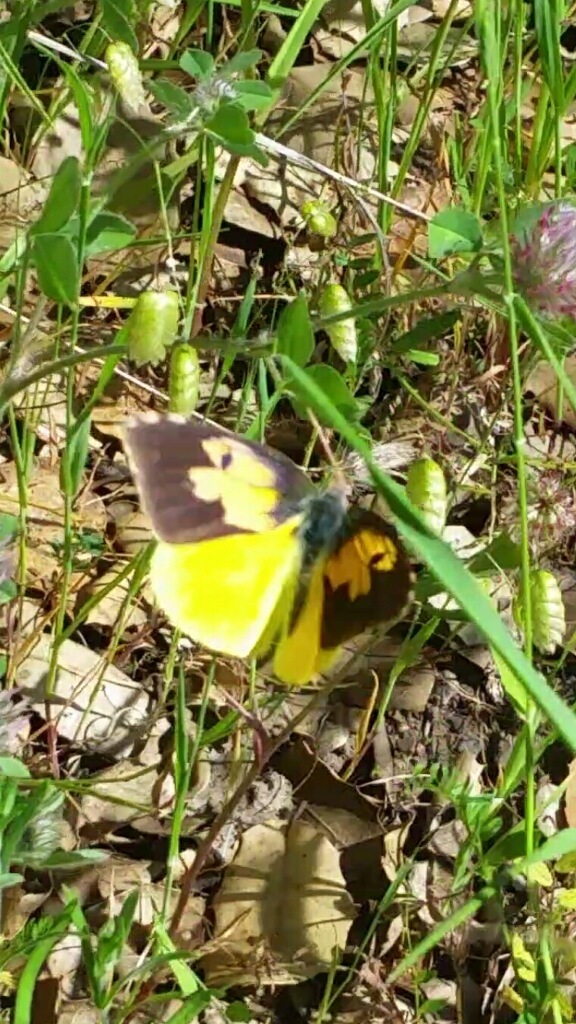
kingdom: Animalia
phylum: Arthropoda
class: Insecta
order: Lepidoptera
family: Pieridae
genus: Zerene
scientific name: Zerene eurydice
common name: California dogface
